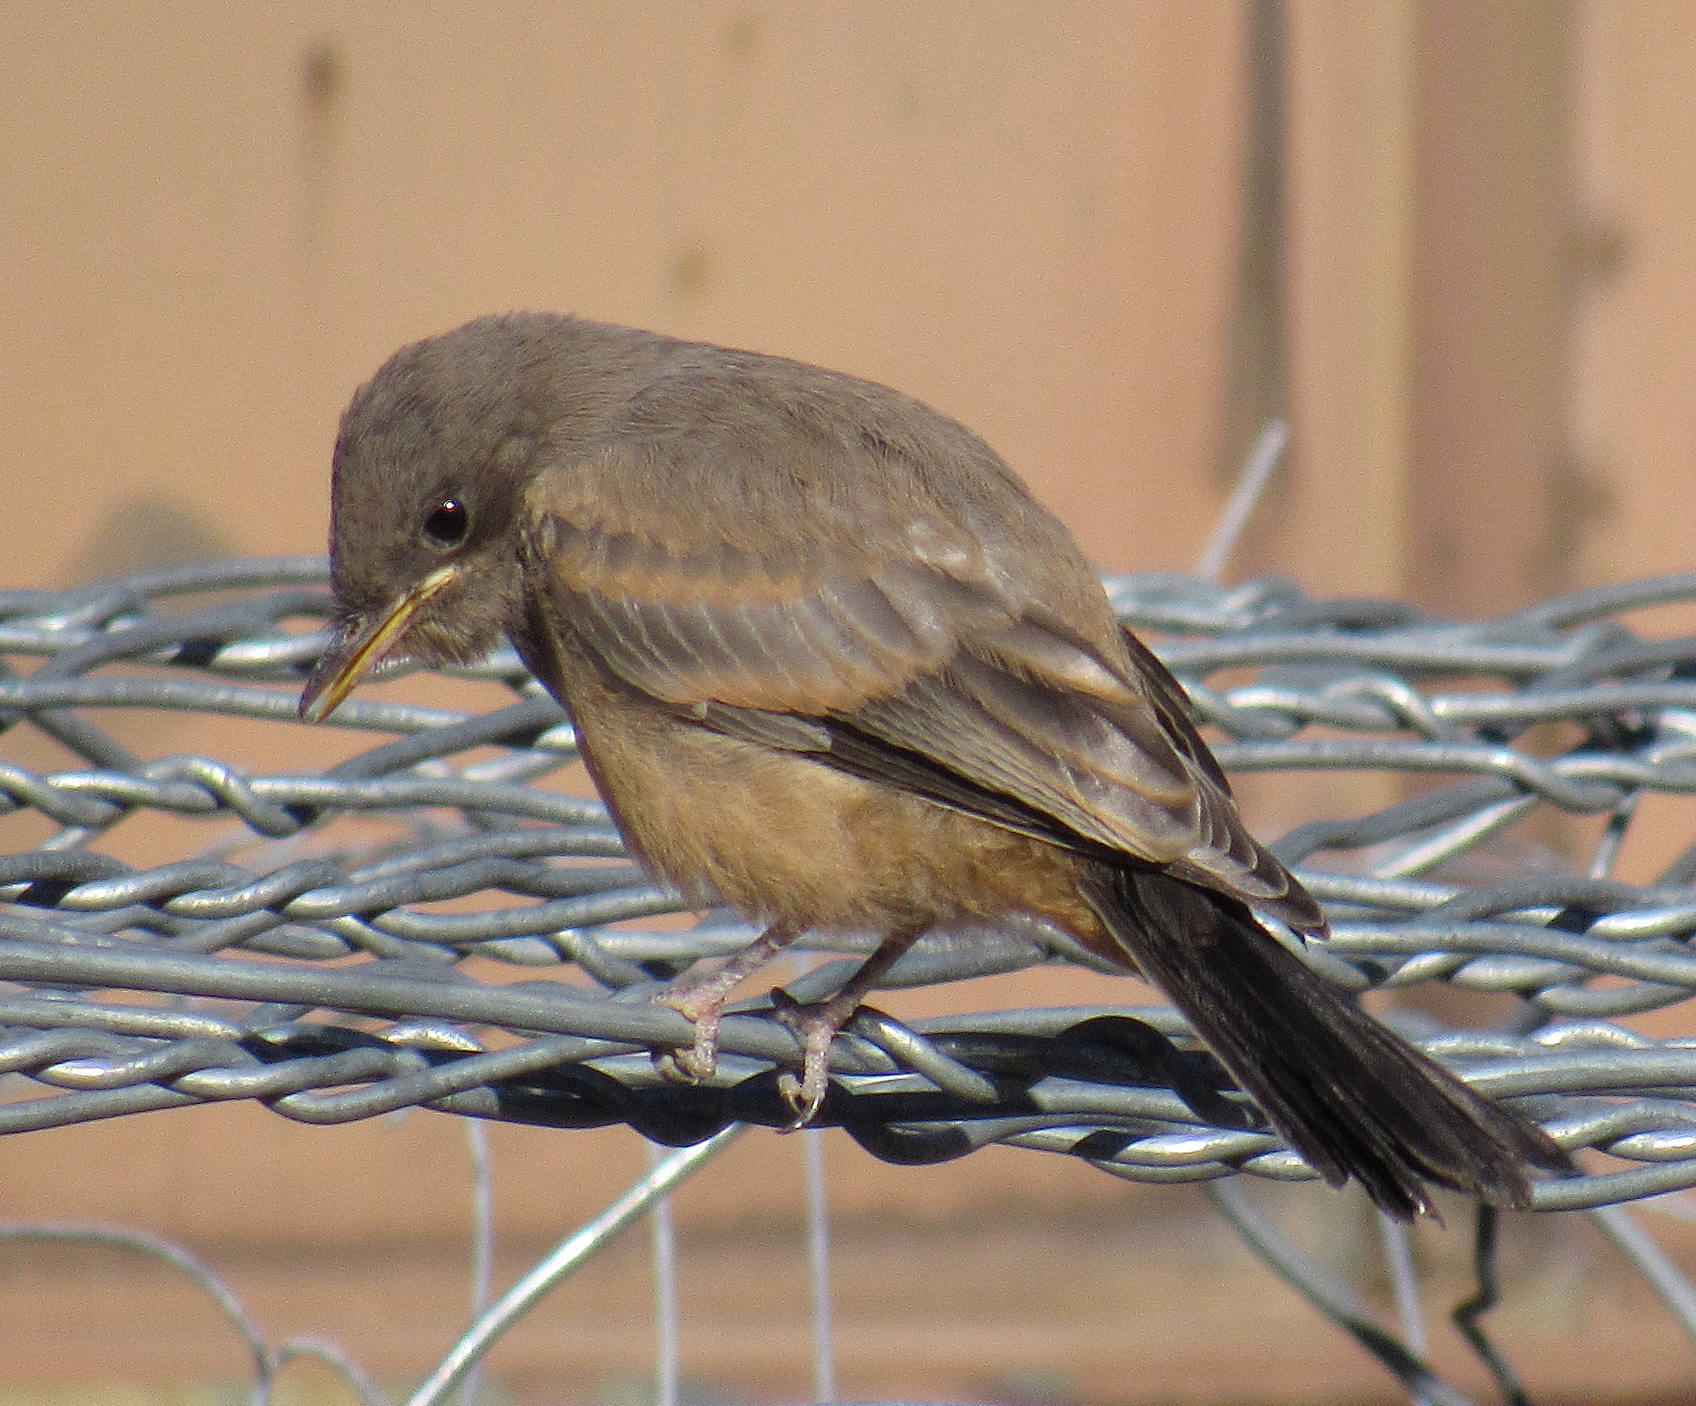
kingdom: Animalia
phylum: Chordata
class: Aves
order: Passeriformes
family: Tyrannidae
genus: Sayornis
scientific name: Sayornis saya
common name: Say's phoebe
